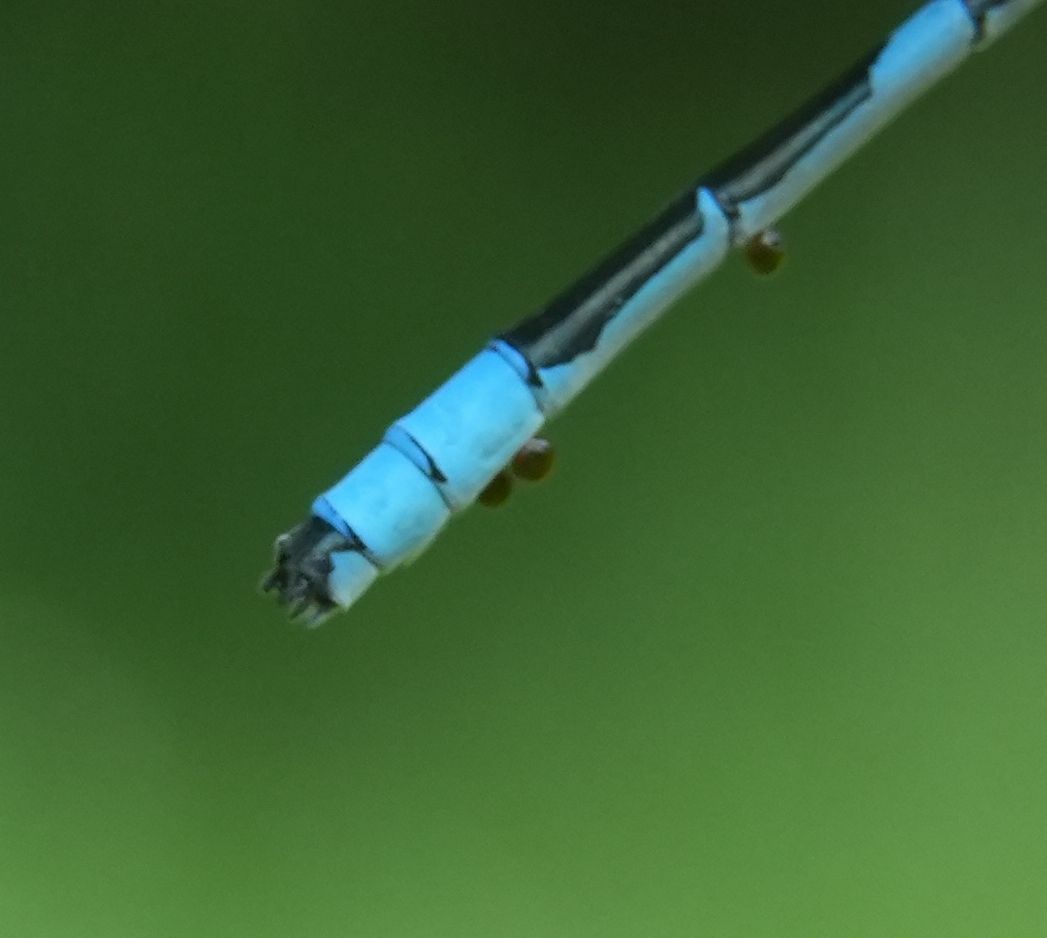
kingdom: Animalia
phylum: Arthropoda
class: Insecta
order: Odonata
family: Coenagrionidae
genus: Enallagma
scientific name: Enallagma ebrium
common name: Marsh bluet
